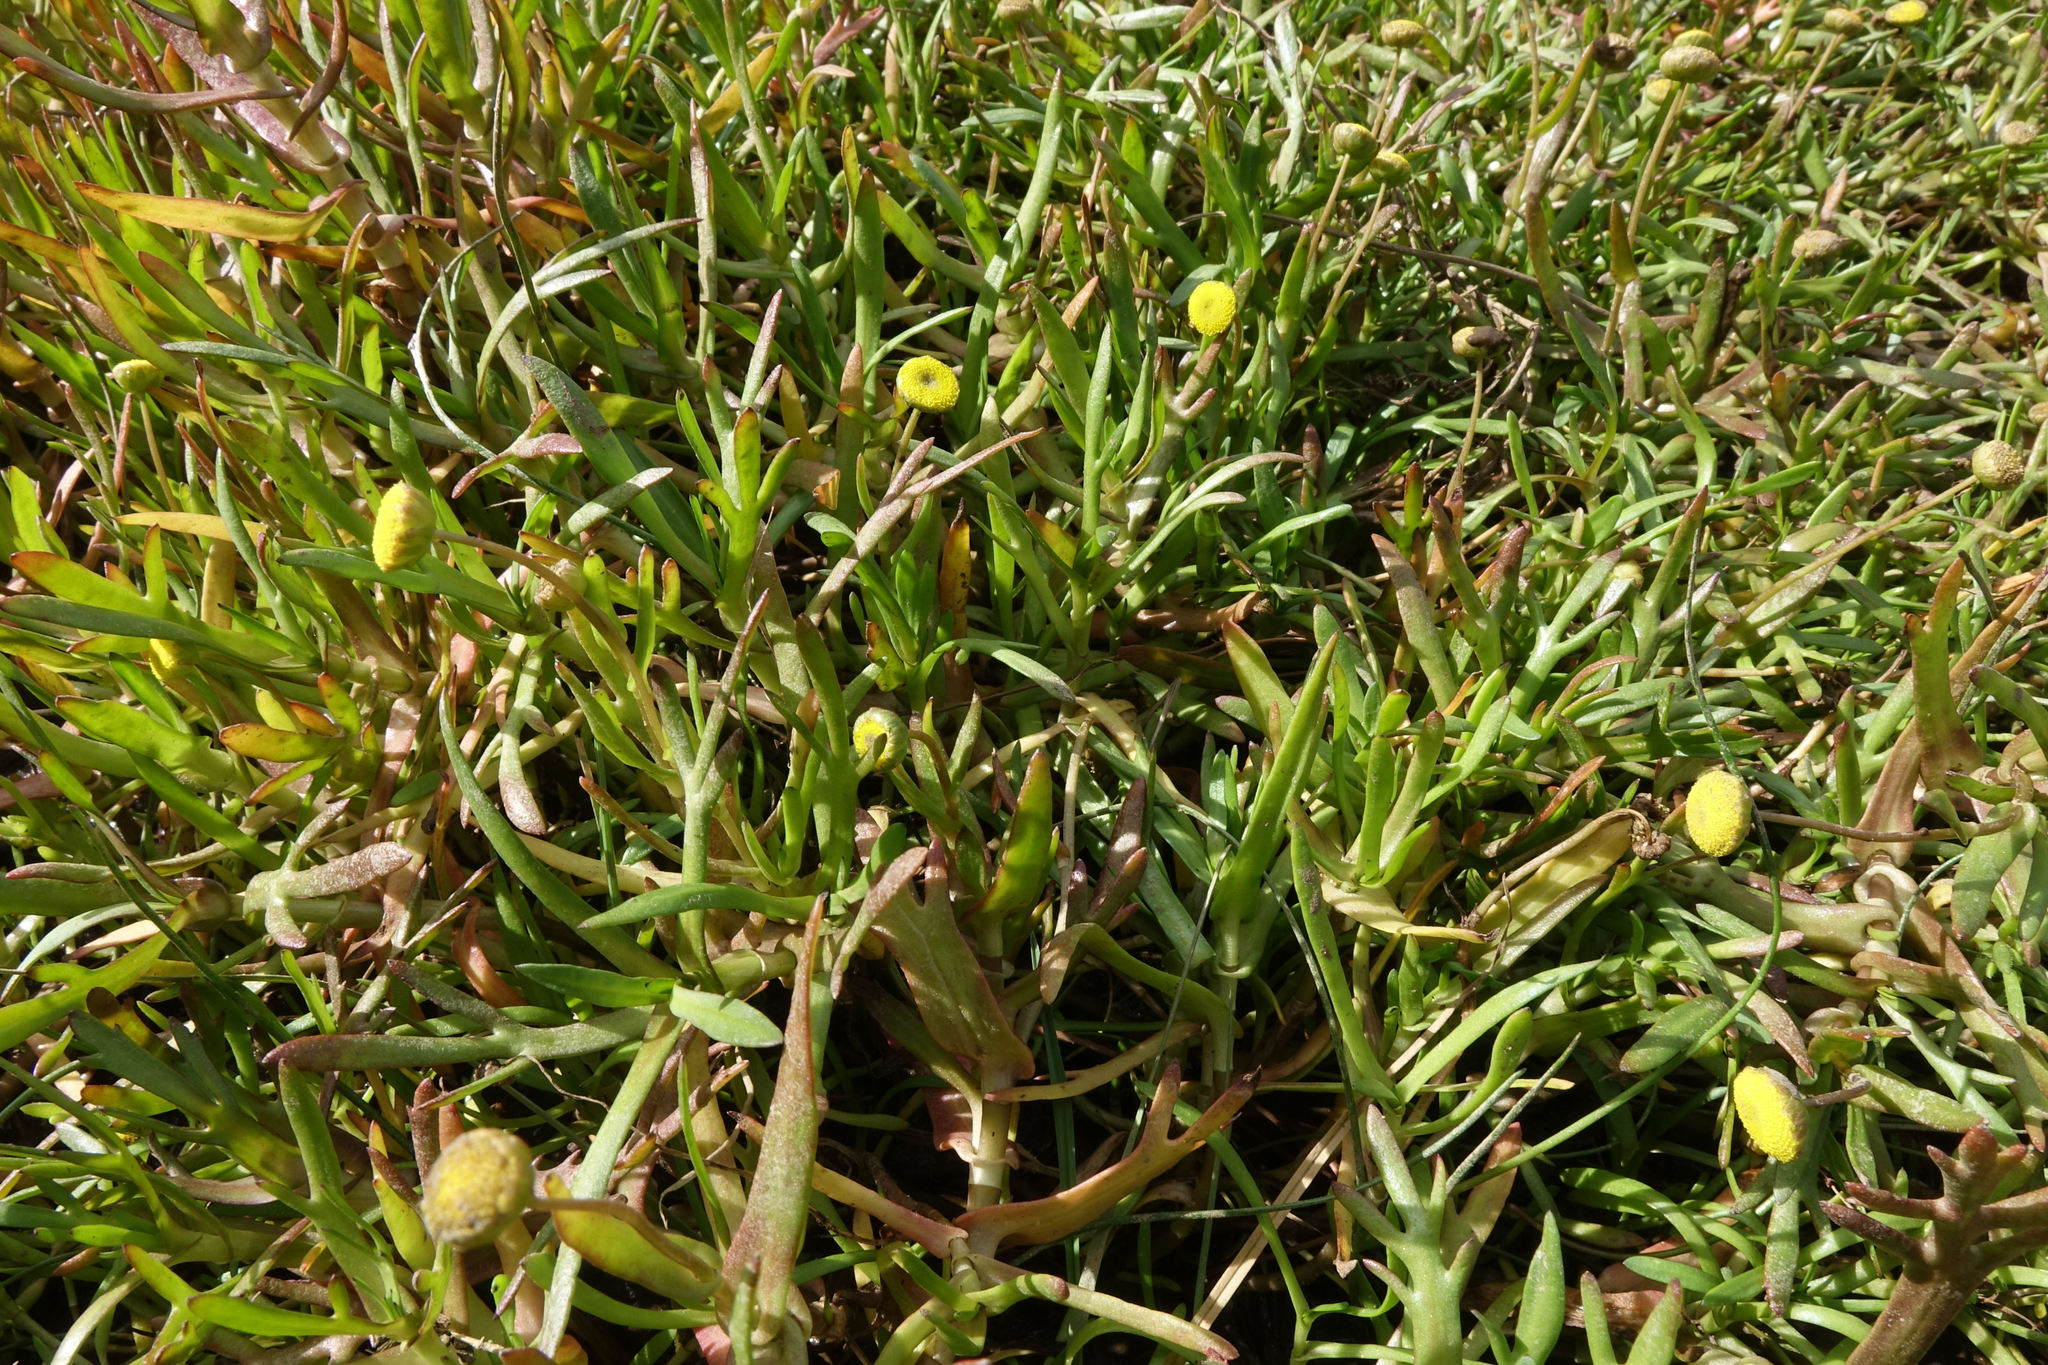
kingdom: Plantae
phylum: Tracheophyta
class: Magnoliopsida
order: Asterales
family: Asteraceae
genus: Cotula
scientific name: Cotula coronopifolia
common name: Buttonweed
